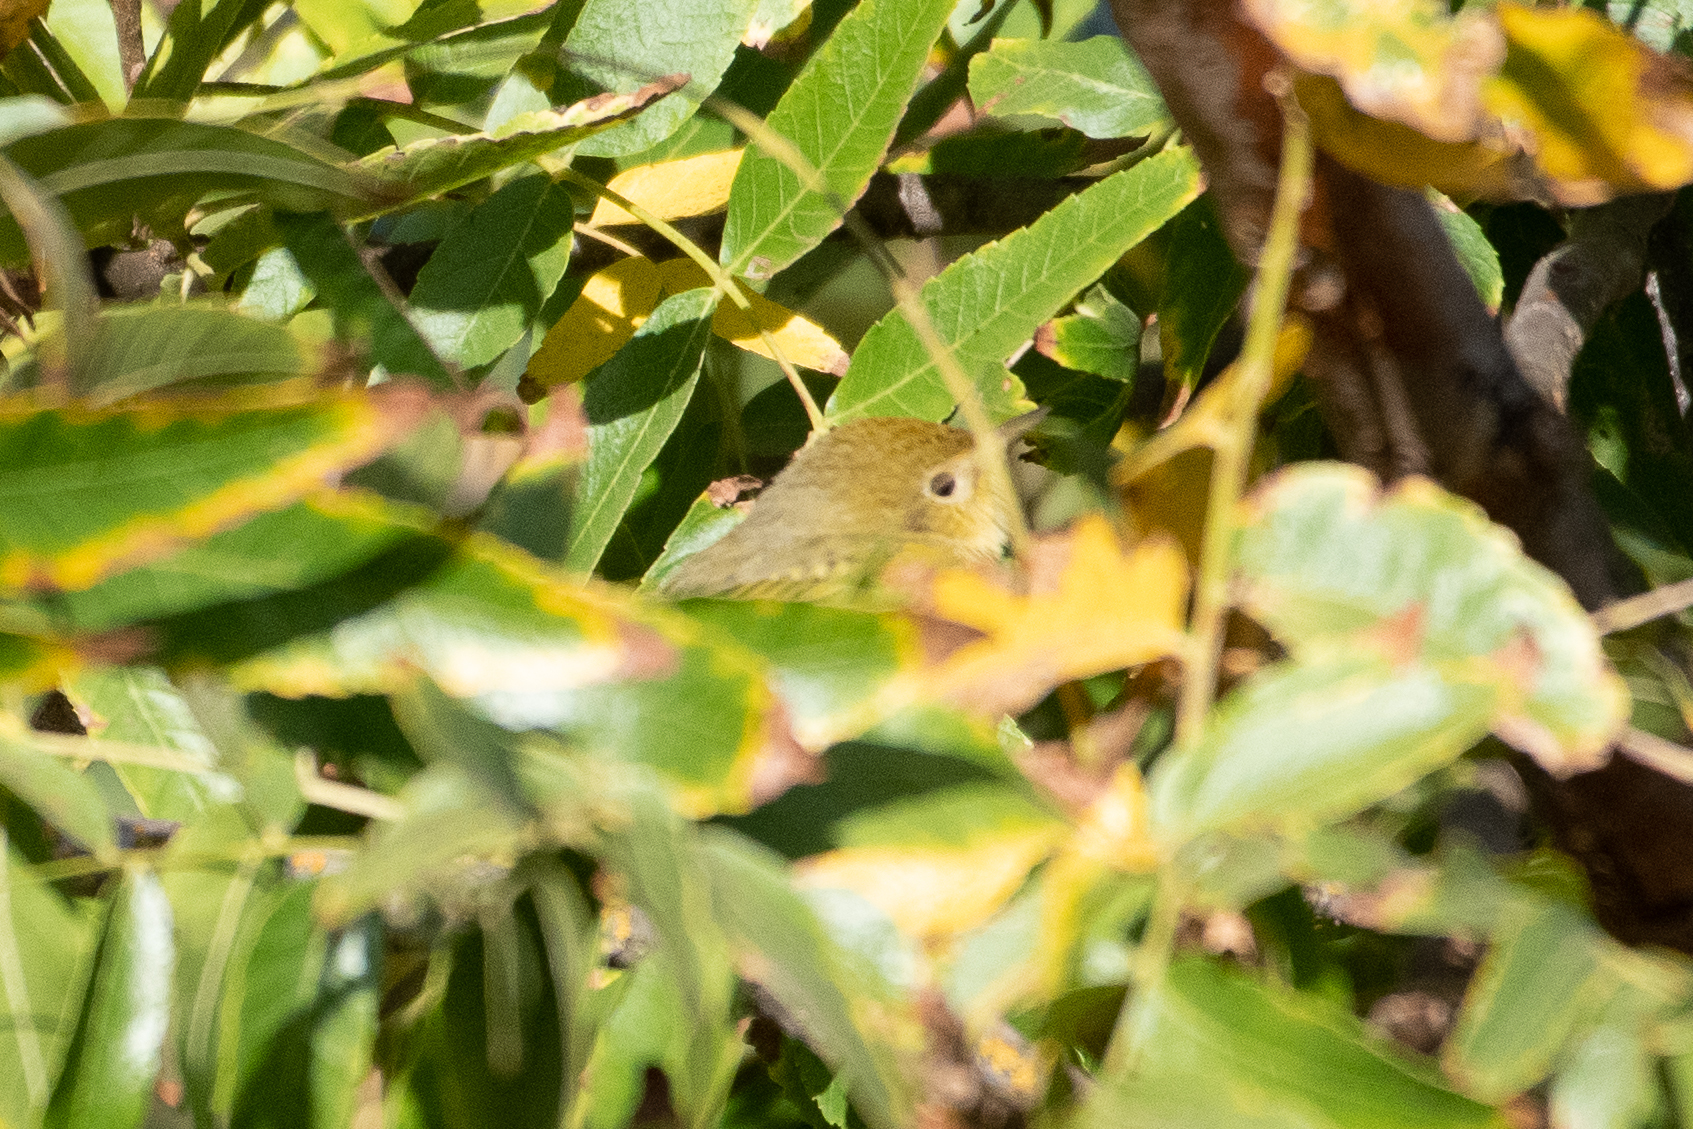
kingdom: Animalia
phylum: Chordata
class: Aves
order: Passeriformes
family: Parulidae
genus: Setophaga
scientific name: Setophaga petechia
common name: Yellow warbler
